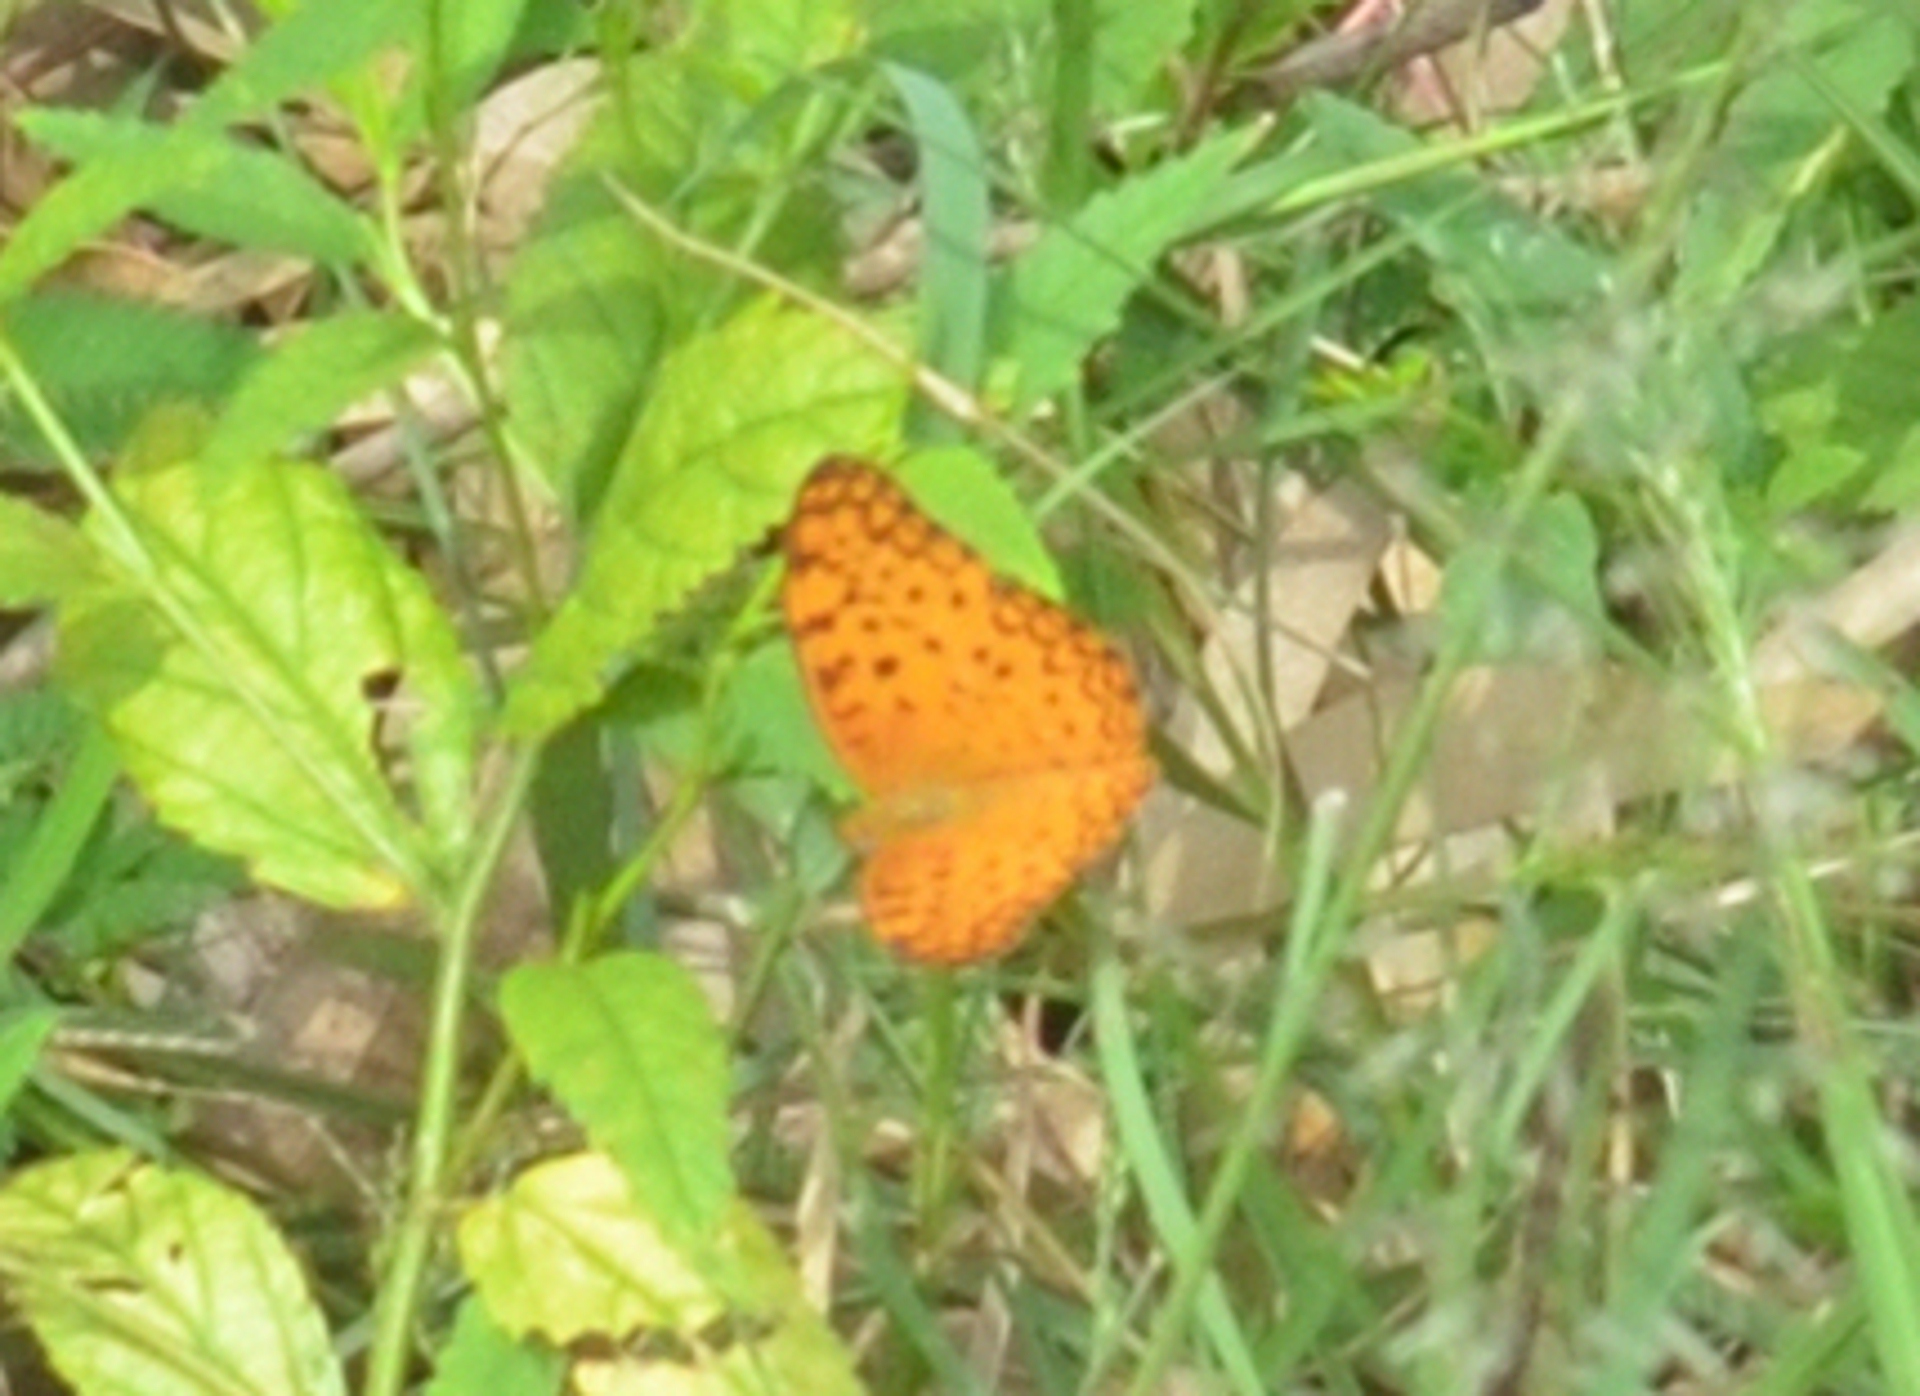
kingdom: Animalia
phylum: Arthropoda
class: Insecta
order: Lepidoptera
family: Nymphalidae
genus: Phalanta
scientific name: Phalanta phalantha
